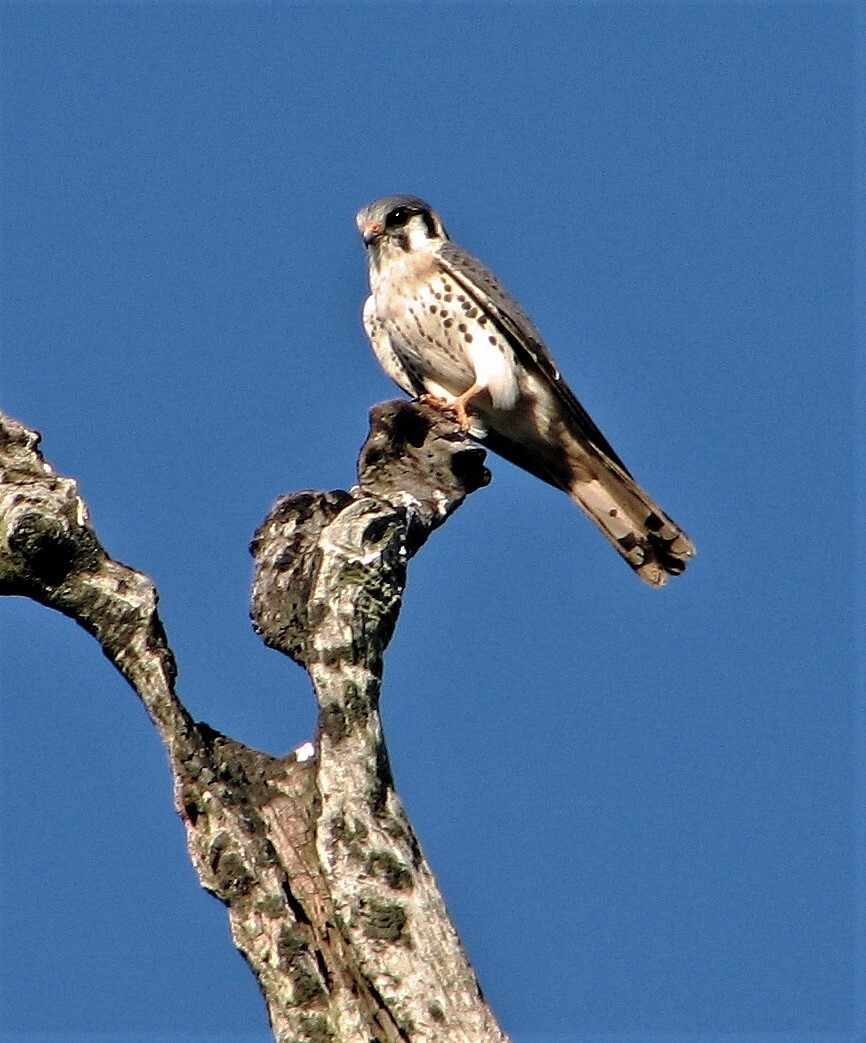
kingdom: Animalia
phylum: Chordata
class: Aves
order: Falconiformes
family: Falconidae
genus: Falco
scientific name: Falco sparverius
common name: American kestrel
